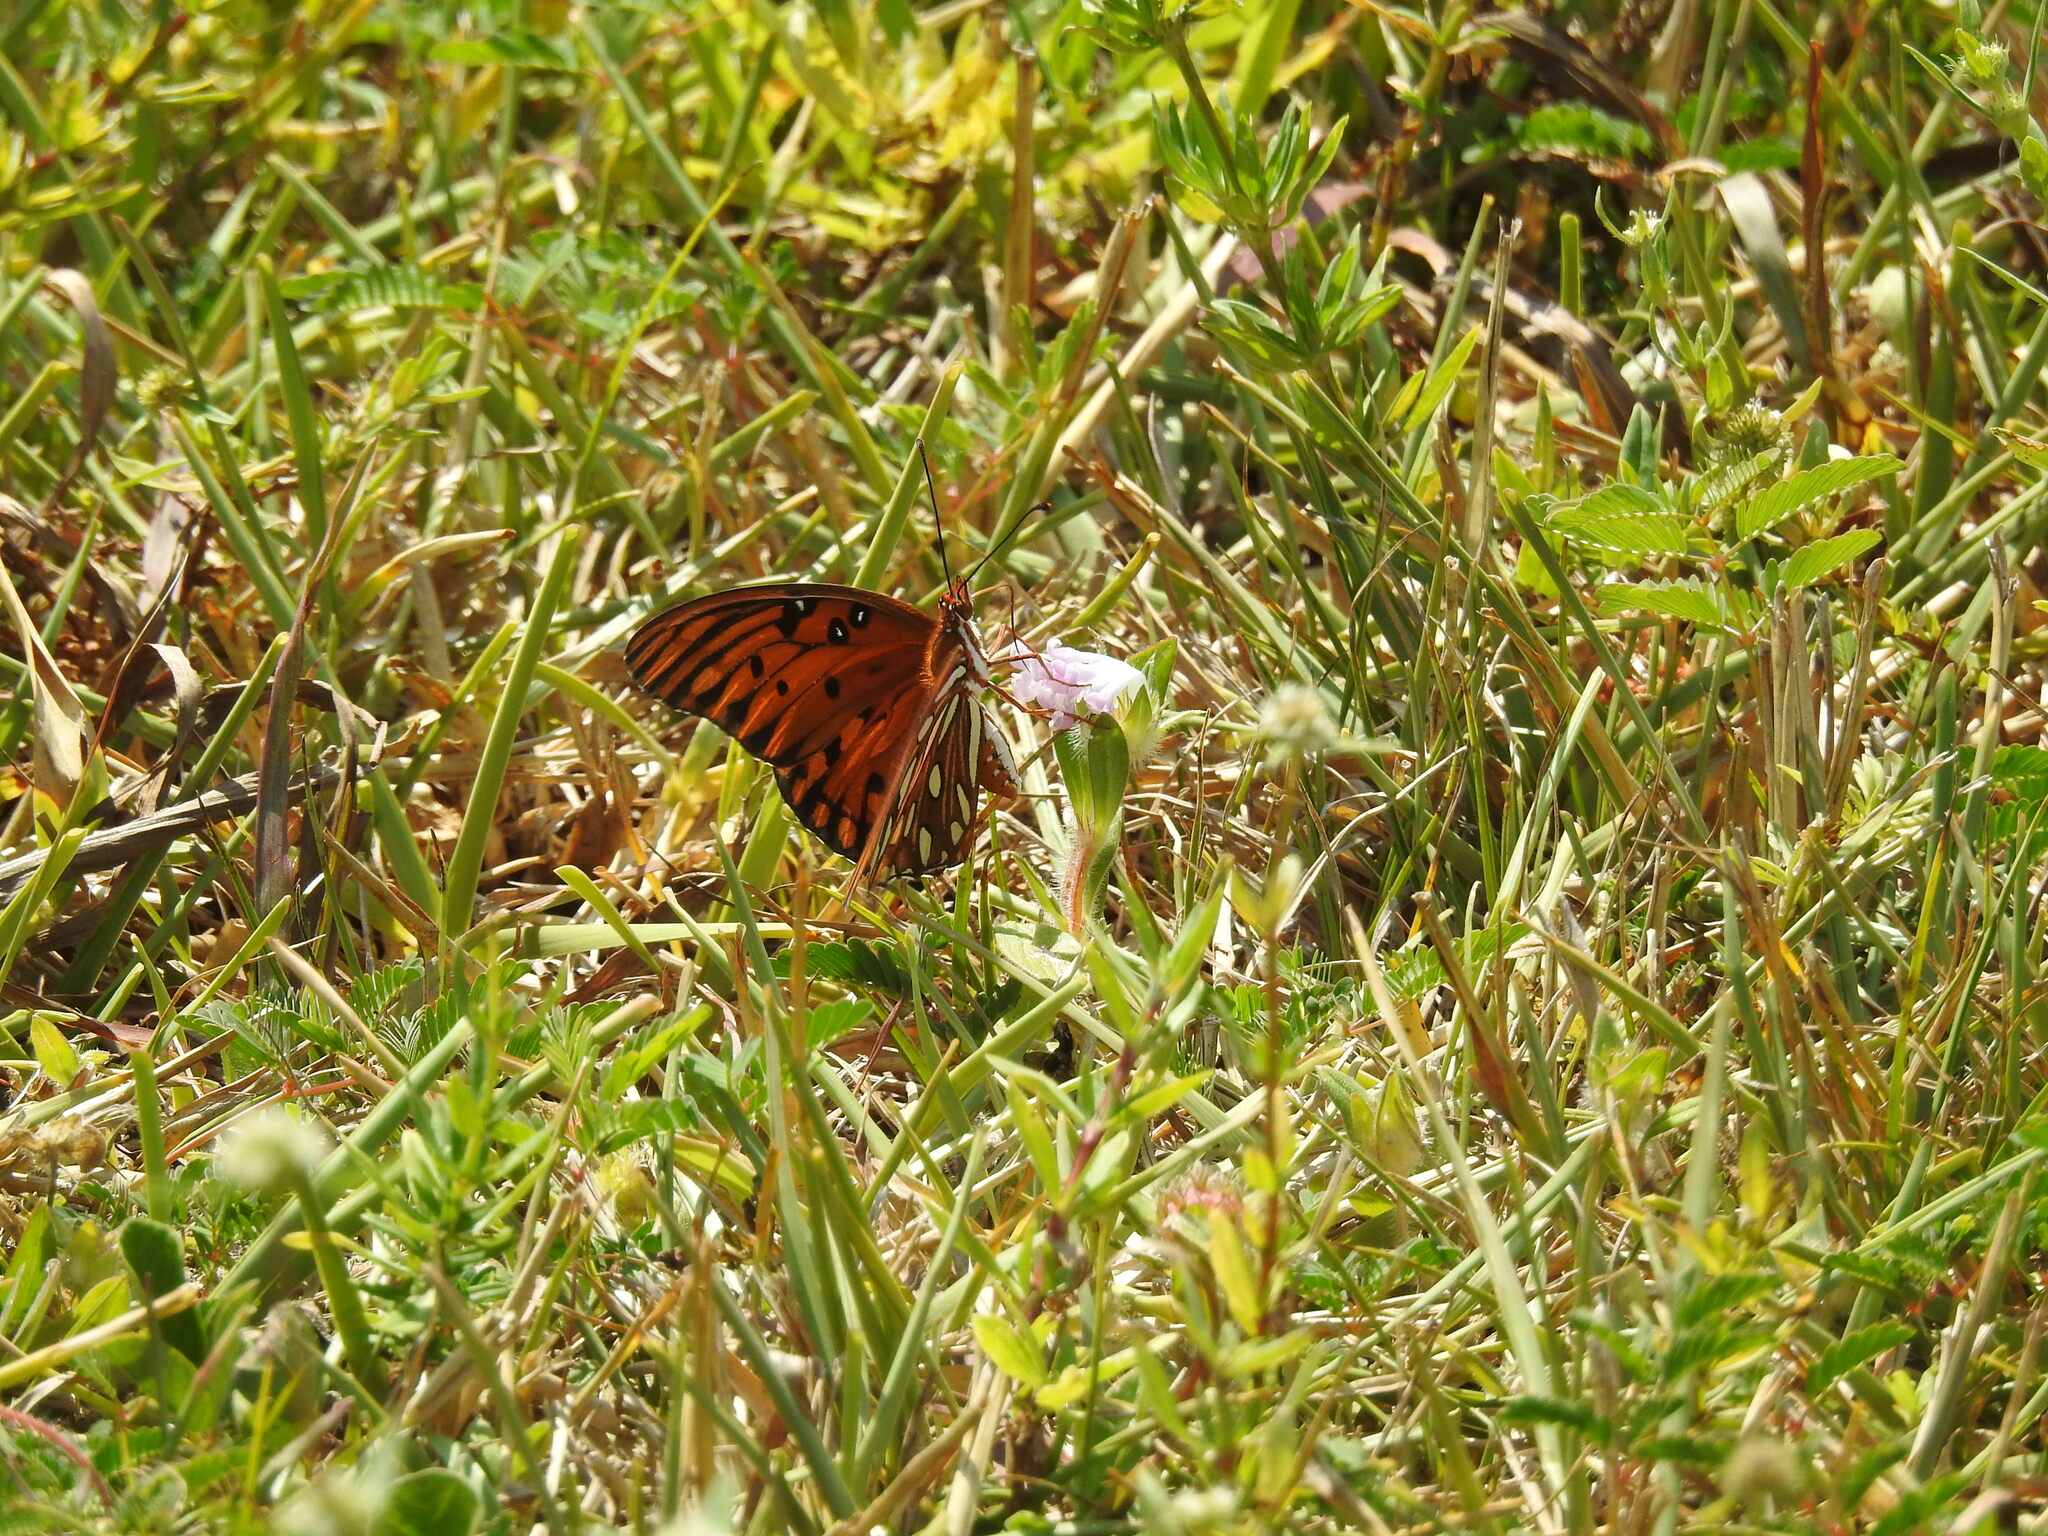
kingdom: Animalia
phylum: Arthropoda
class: Insecta
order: Lepidoptera
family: Nymphalidae
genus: Dione
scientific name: Dione vanillae
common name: Gulf fritillary
